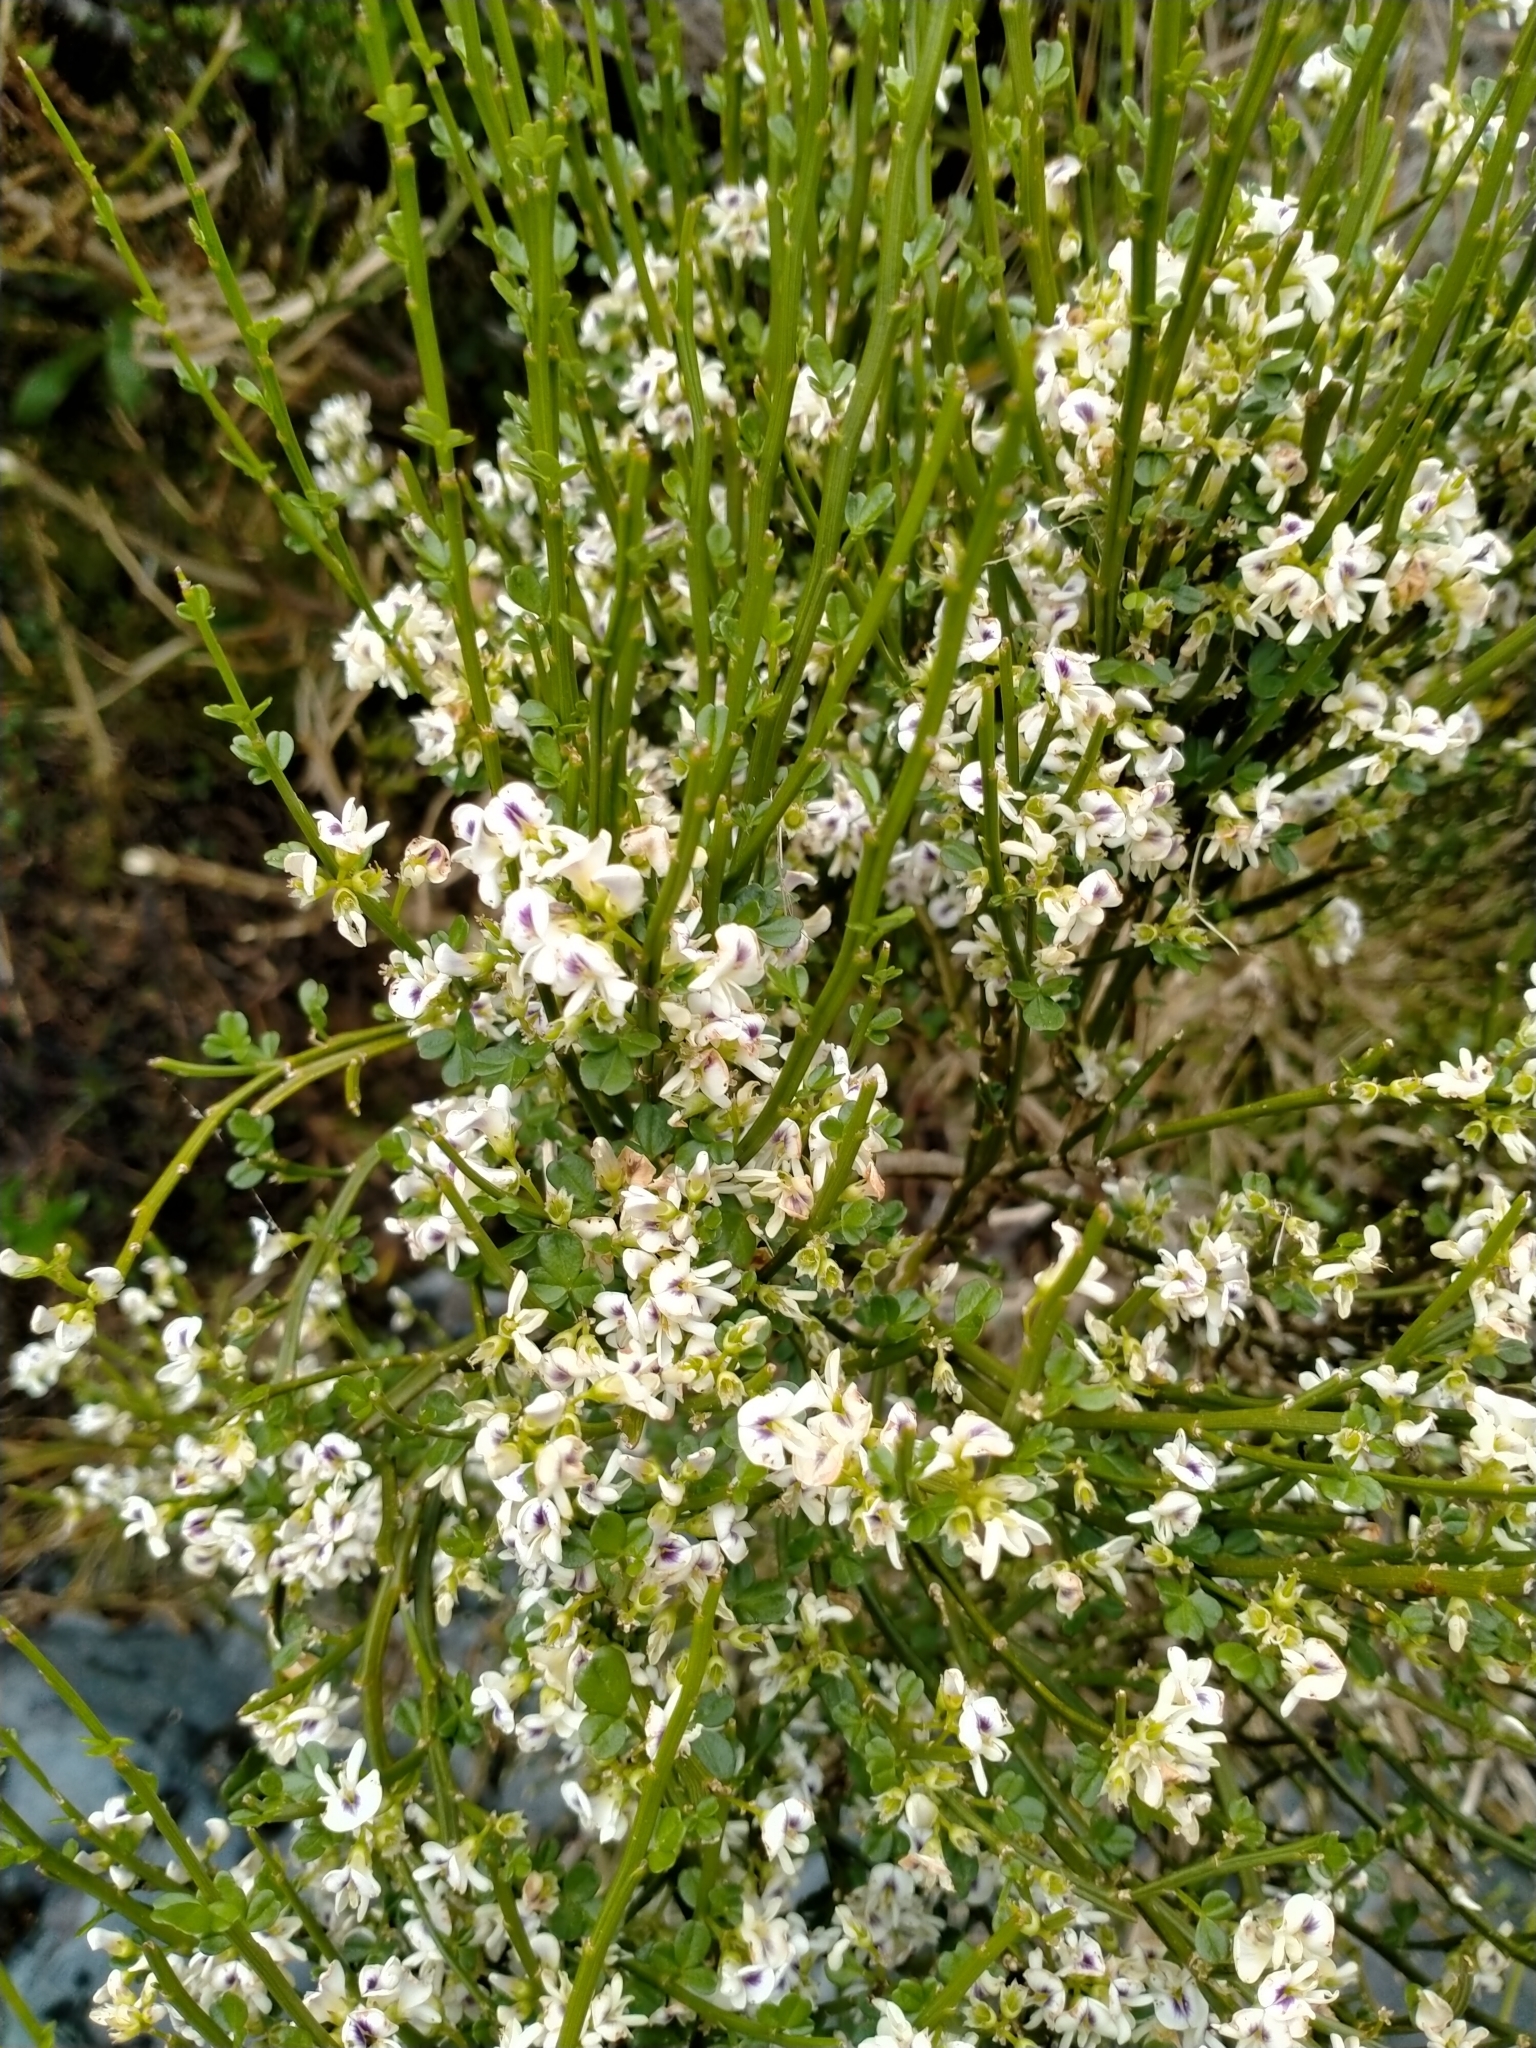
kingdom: Plantae
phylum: Tracheophyta
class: Magnoliopsida
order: Fabales
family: Fabaceae
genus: Carmichaelia
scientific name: Carmichaelia arborea
